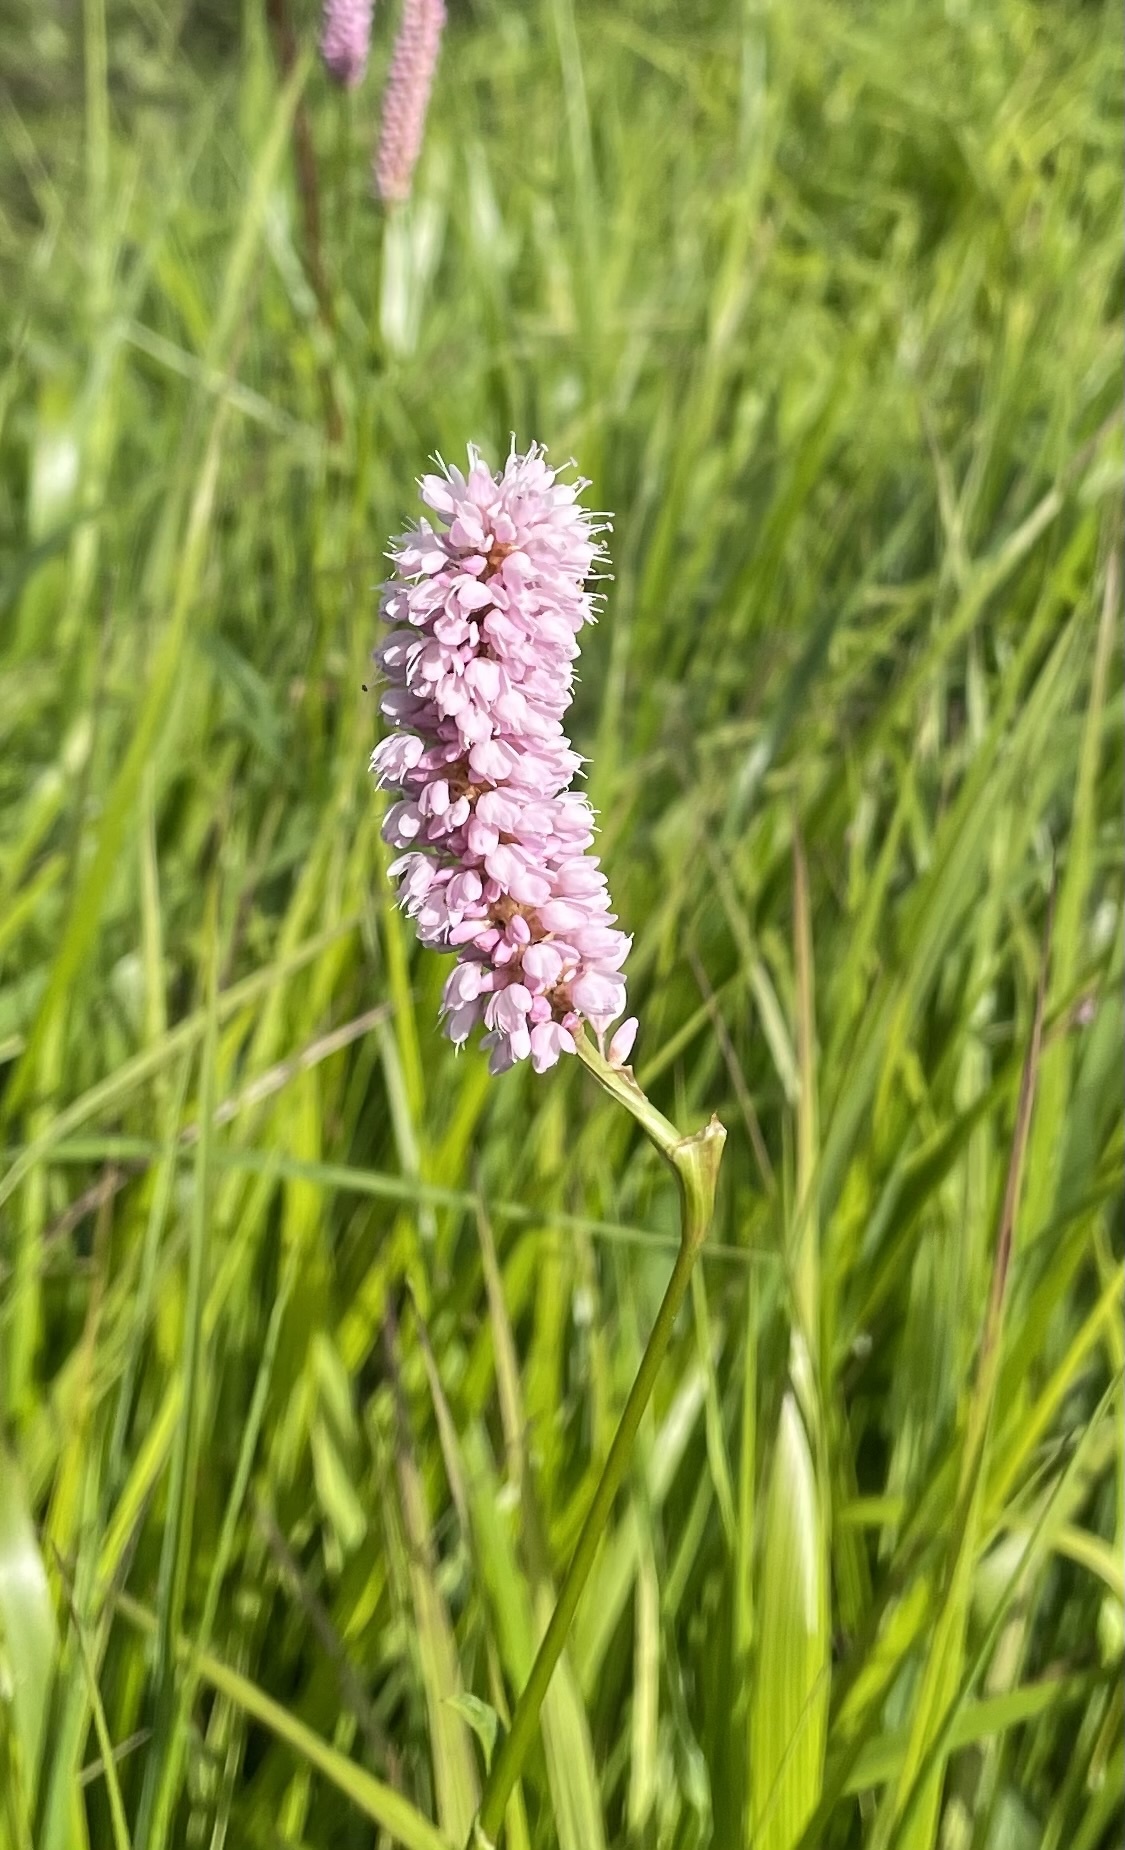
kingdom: Plantae
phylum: Tracheophyta
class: Magnoliopsida
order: Caryophyllales
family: Polygonaceae
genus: Bistorta
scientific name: Bistorta officinalis
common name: Common bistort
